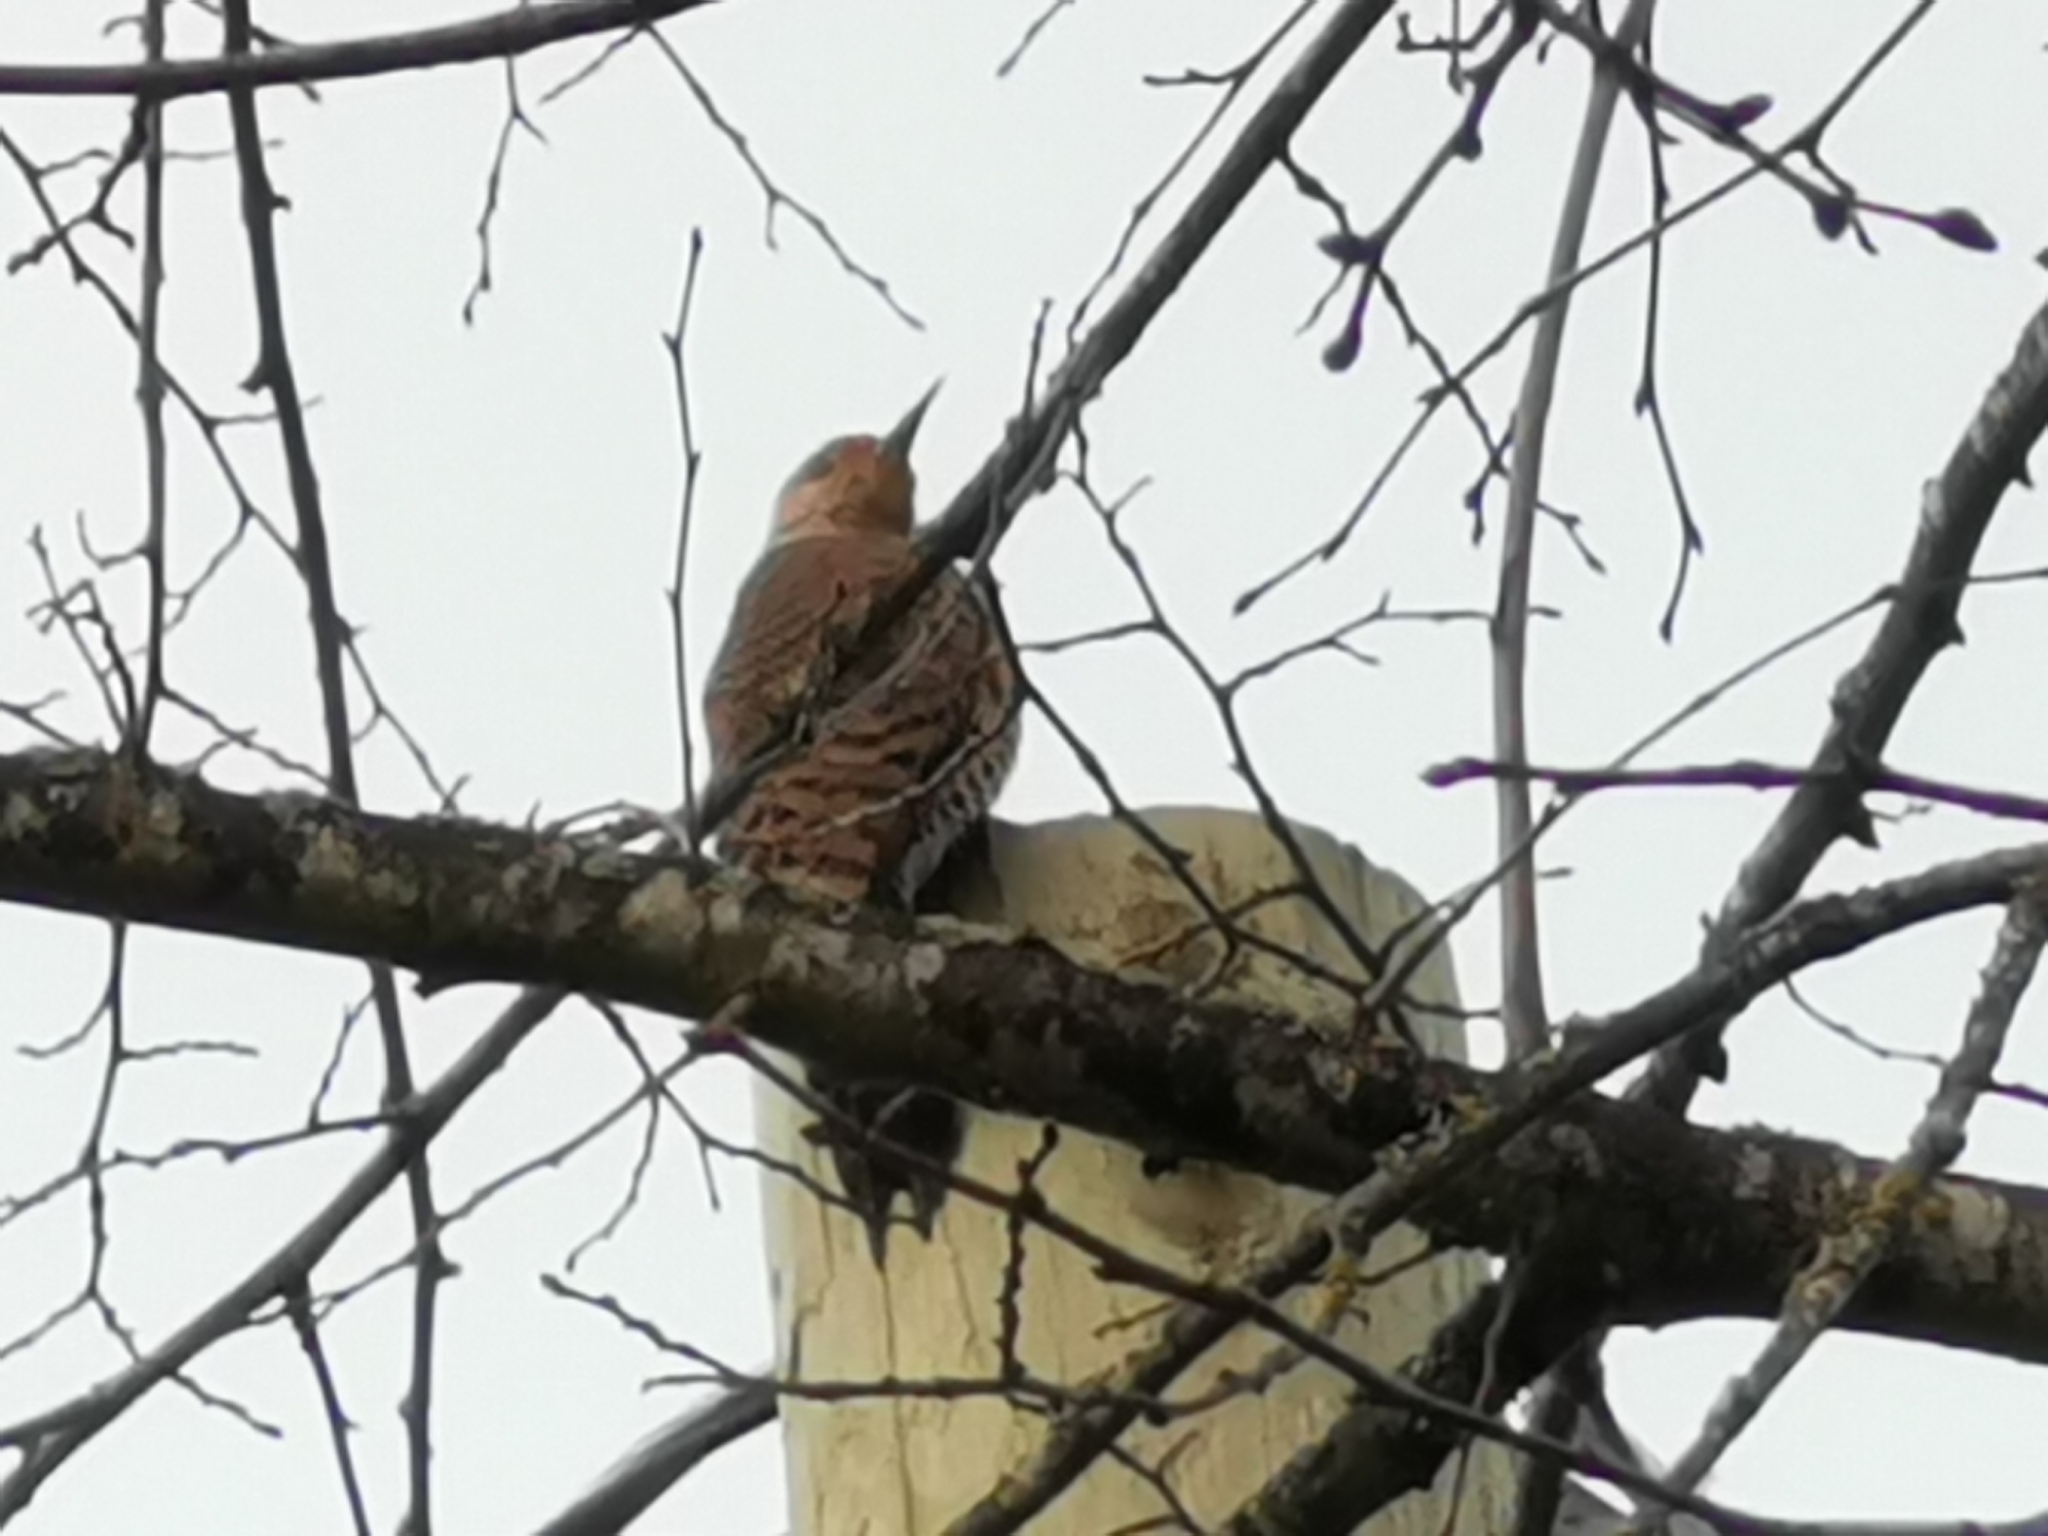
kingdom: Animalia
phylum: Chordata
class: Aves
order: Piciformes
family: Picidae
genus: Colaptes
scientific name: Colaptes auratus
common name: Northern flicker
